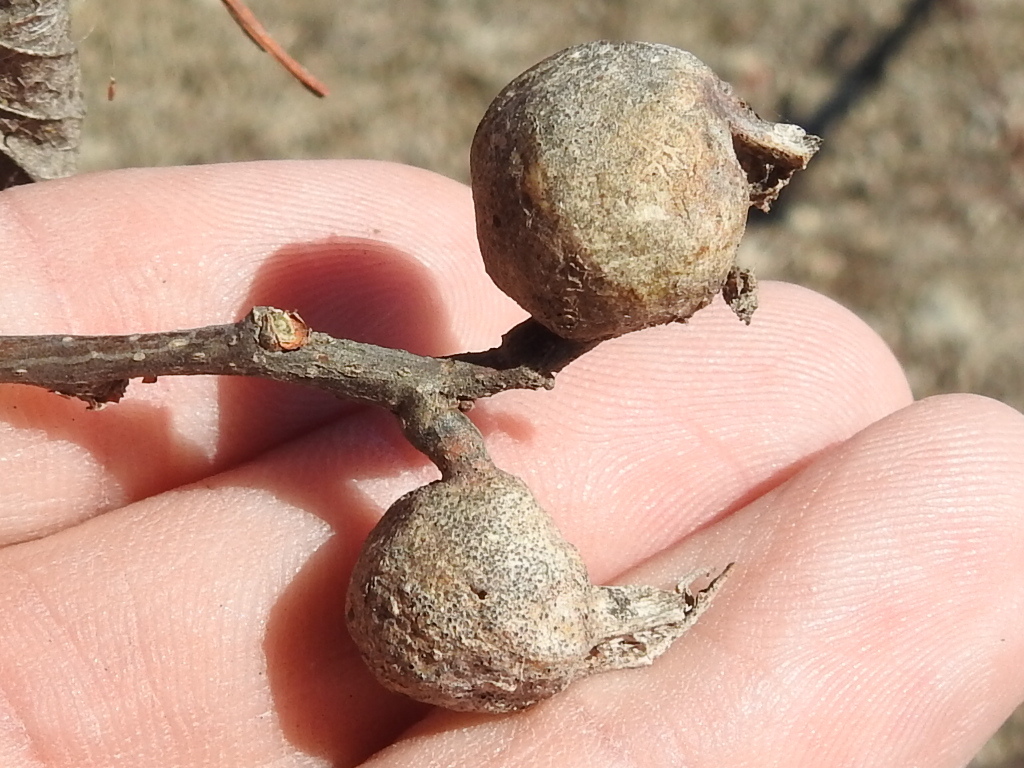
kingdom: Animalia
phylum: Arthropoda
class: Insecta
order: Hemiptera
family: Aphalaridae
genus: Pachypsylla
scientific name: Pachypsylla venusta
